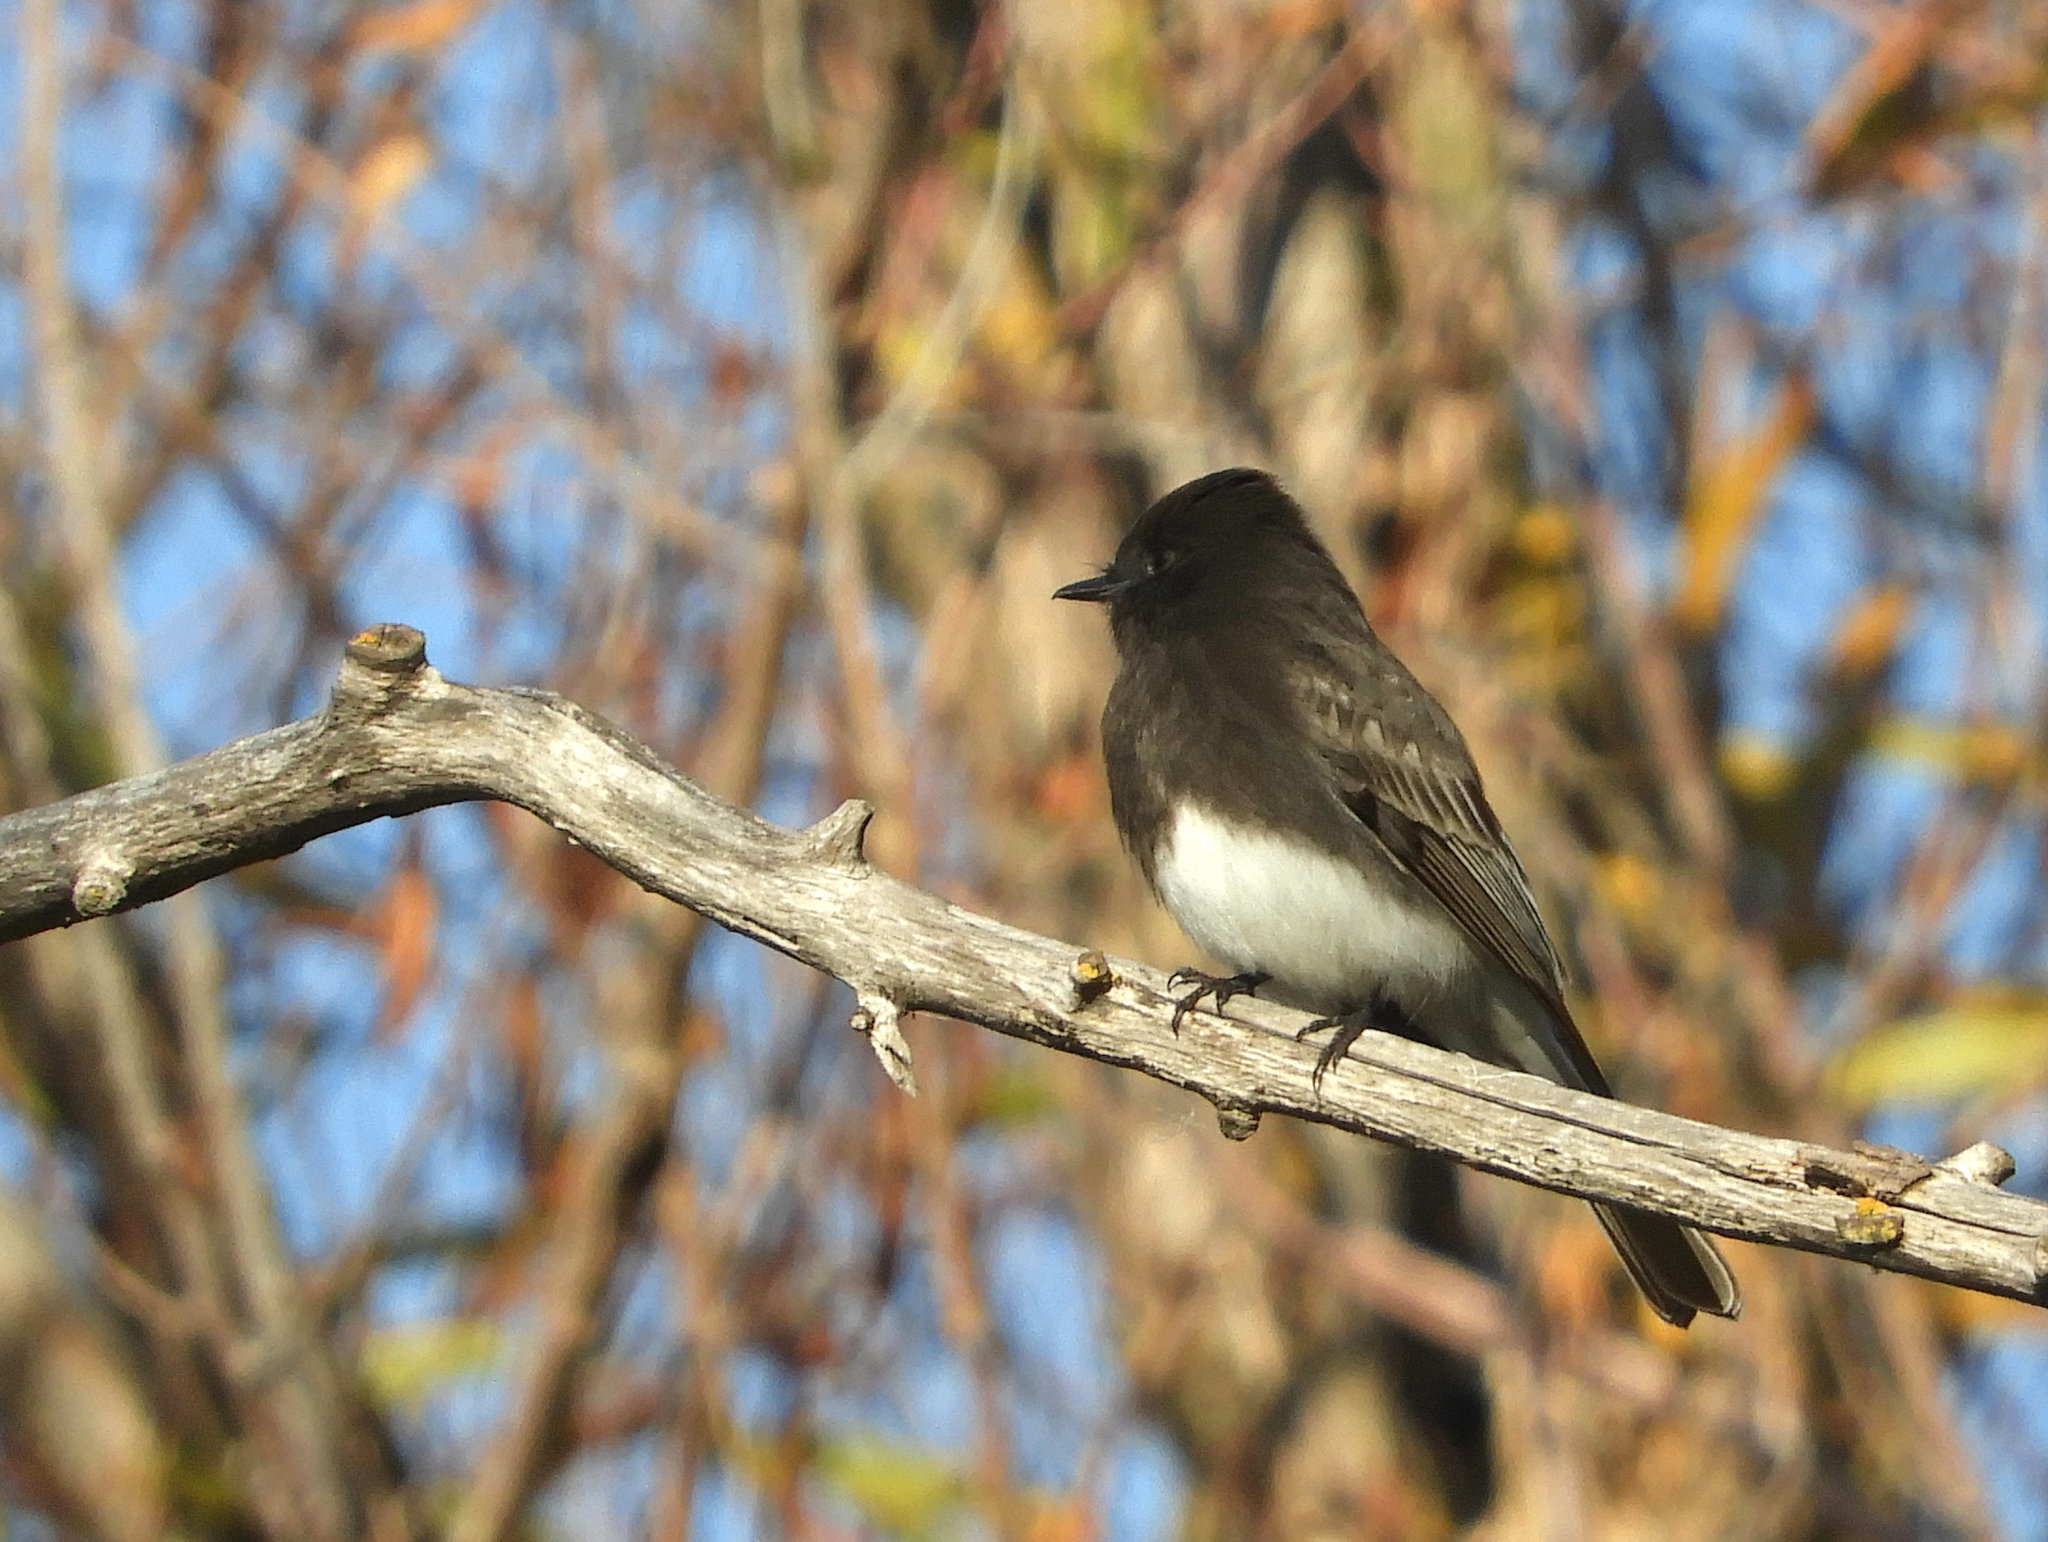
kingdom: Animalia
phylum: Chordata
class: Aves
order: Passeriformes
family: Tyrannidae
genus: Sayornis
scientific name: Sayornis nigricans
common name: Black phoebe
